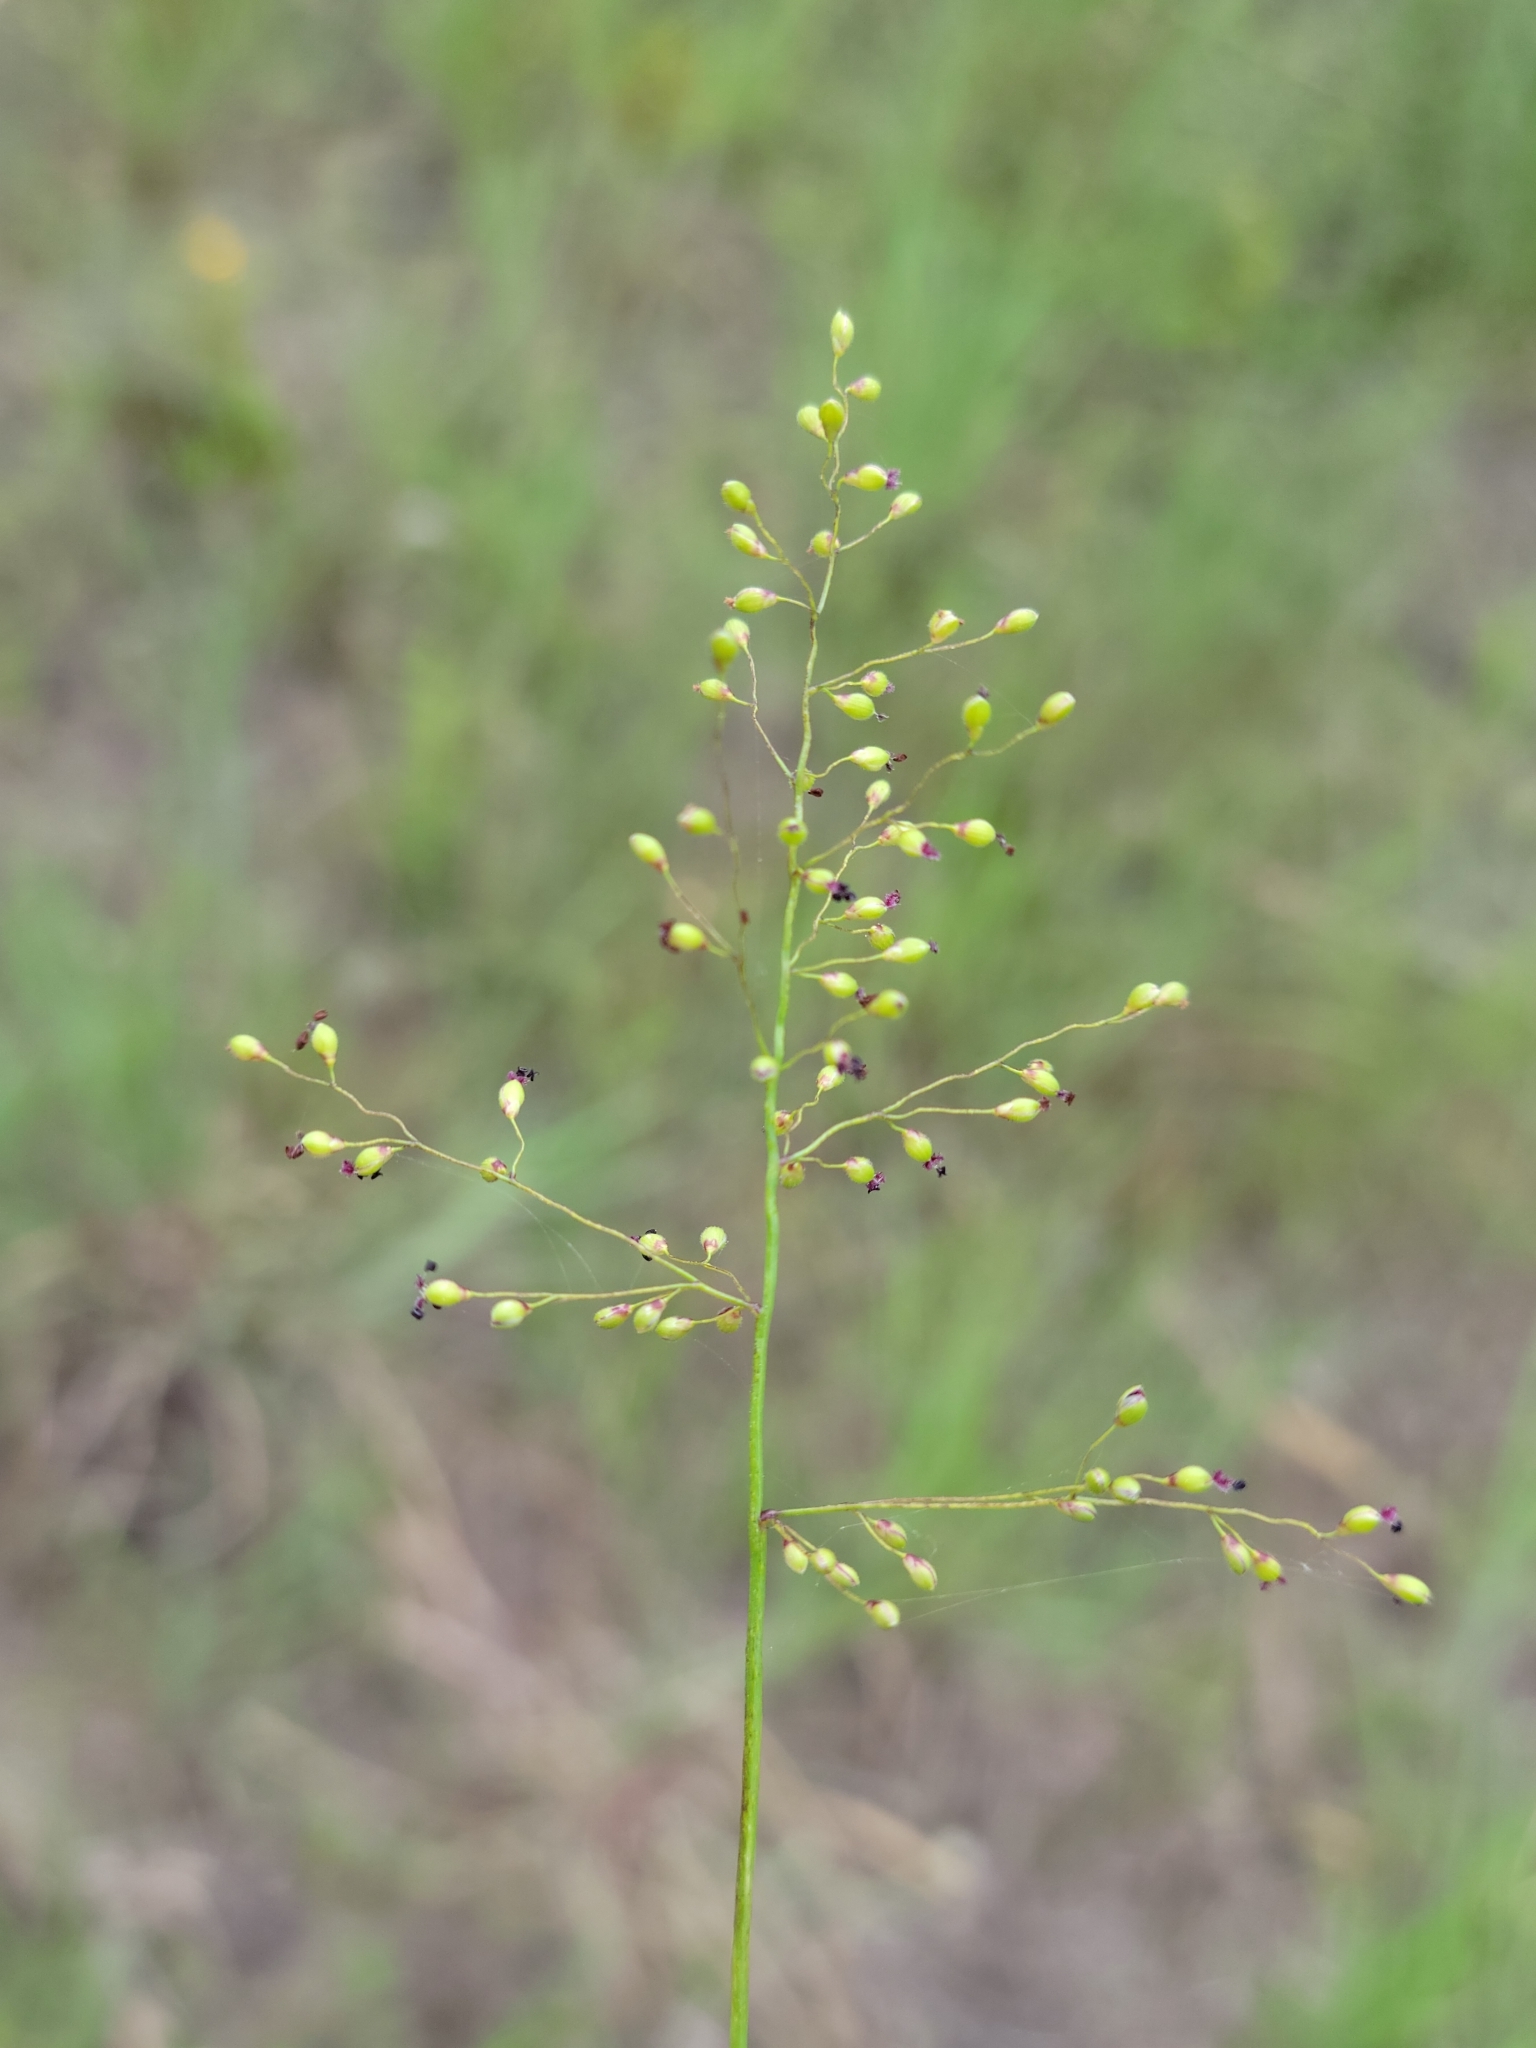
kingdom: Plantae
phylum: Tracheophyta
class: Liliopsida
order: Poales
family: Poaceae
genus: Dichanthelium
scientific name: Dichanthelium dichotomum
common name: Cypress panicgrass
